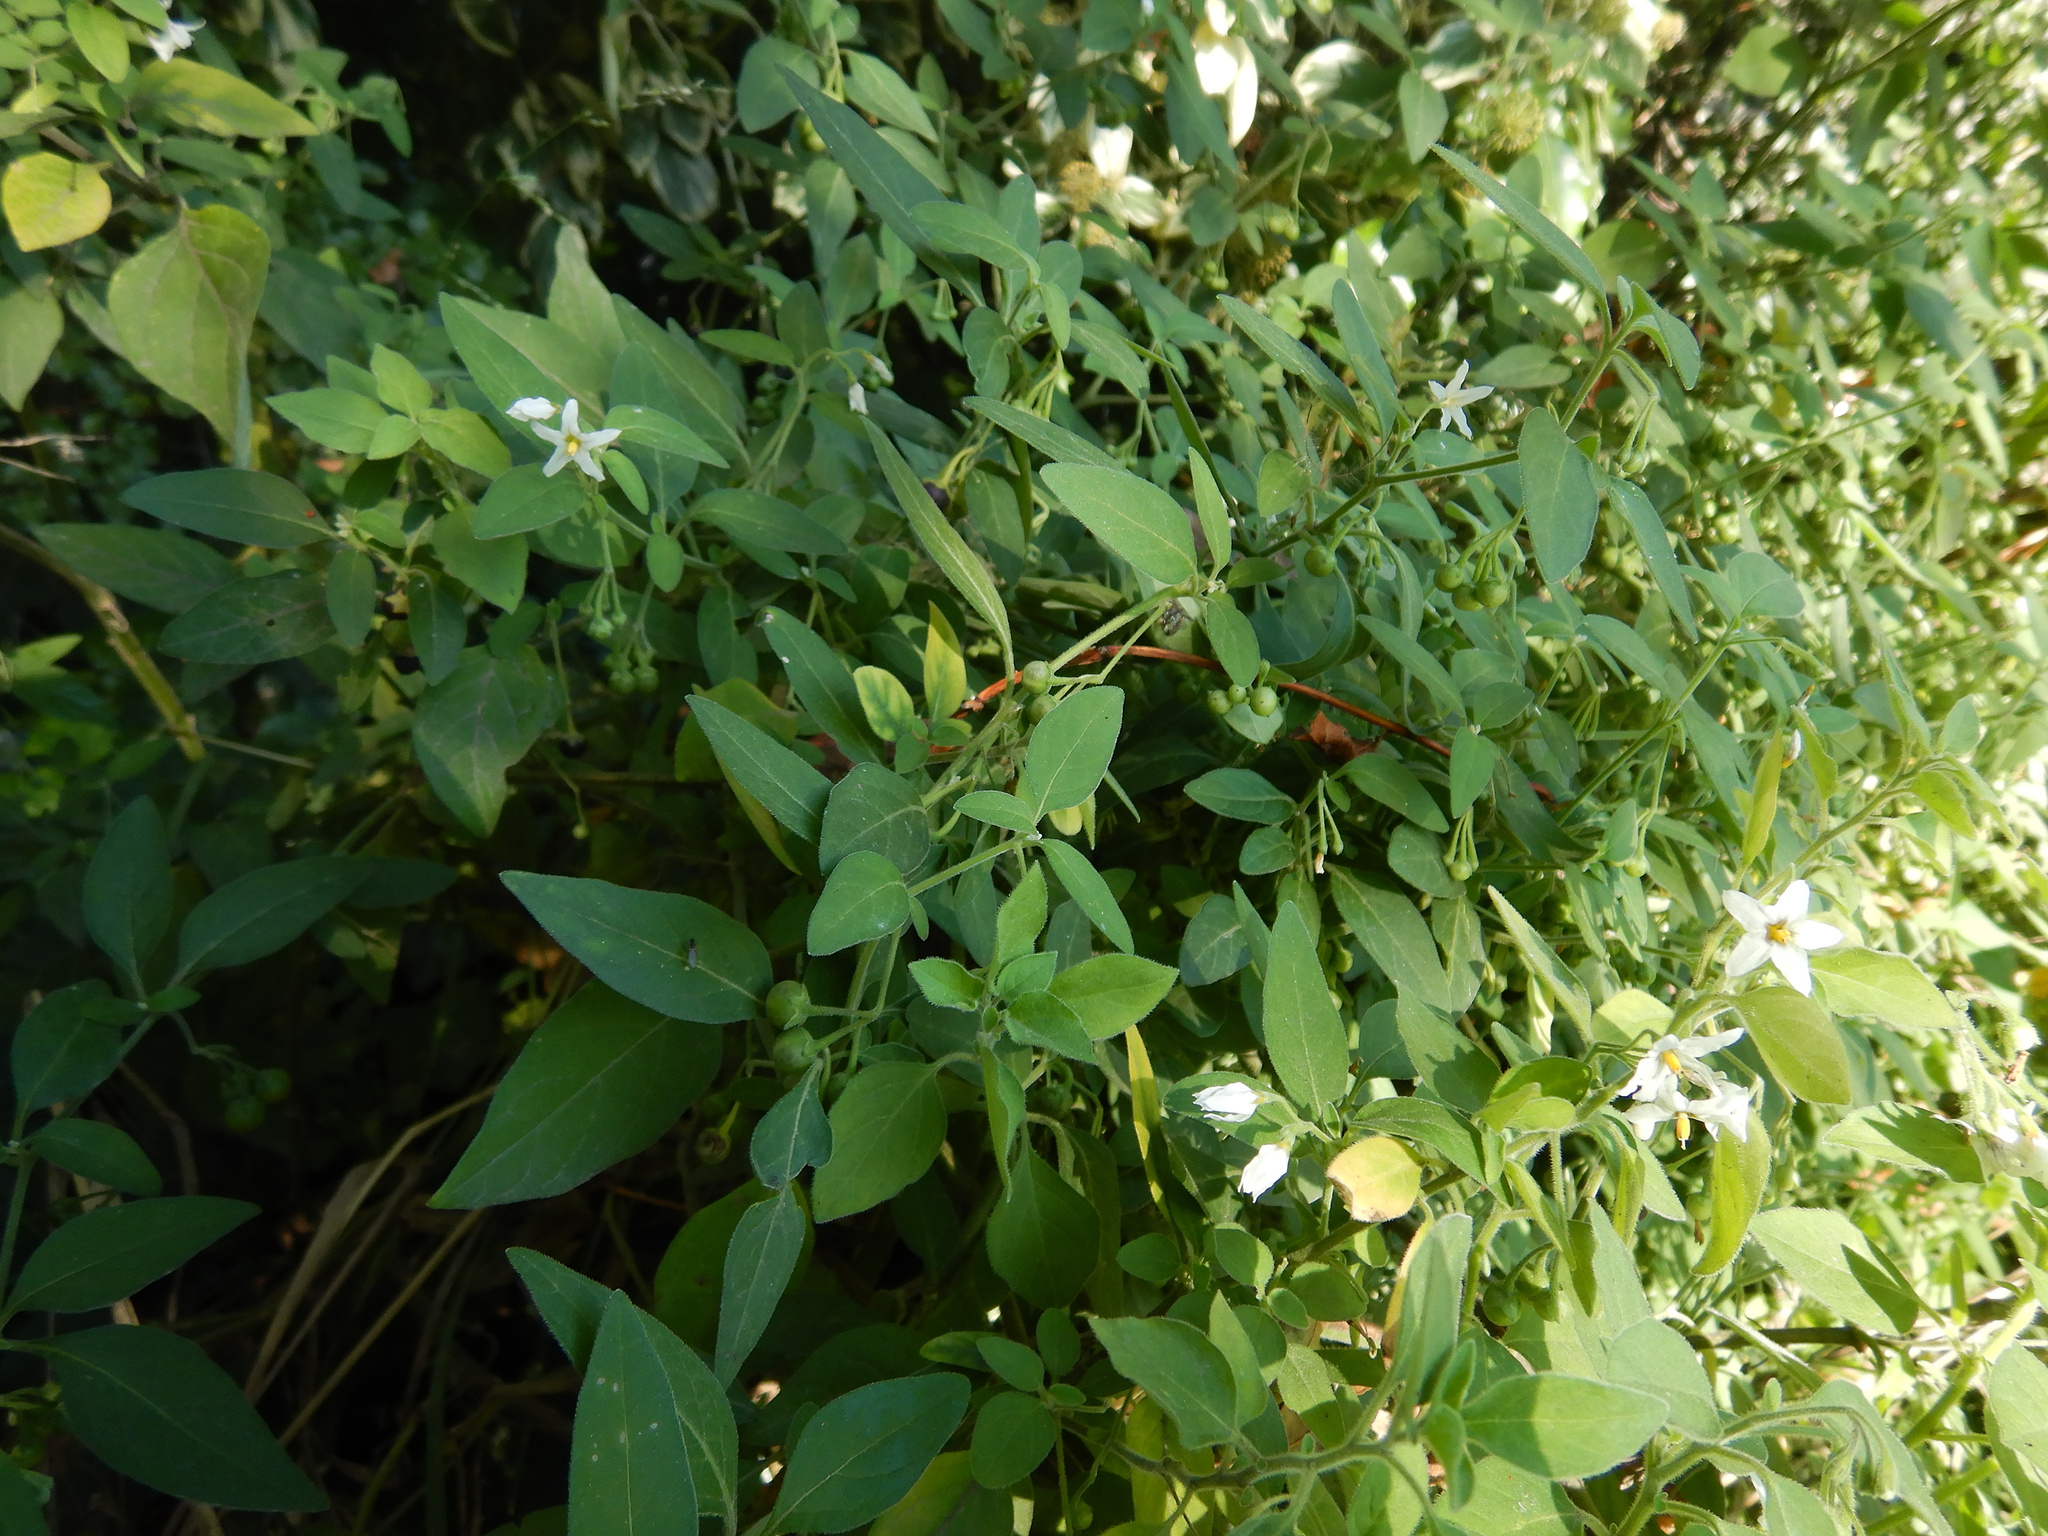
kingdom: Plantae
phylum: Tracheophyta
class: Magnoliopsida
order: Solanales
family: Solanaceae
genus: Solanum
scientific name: Solanum chenopodioides
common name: Tall nightshade
